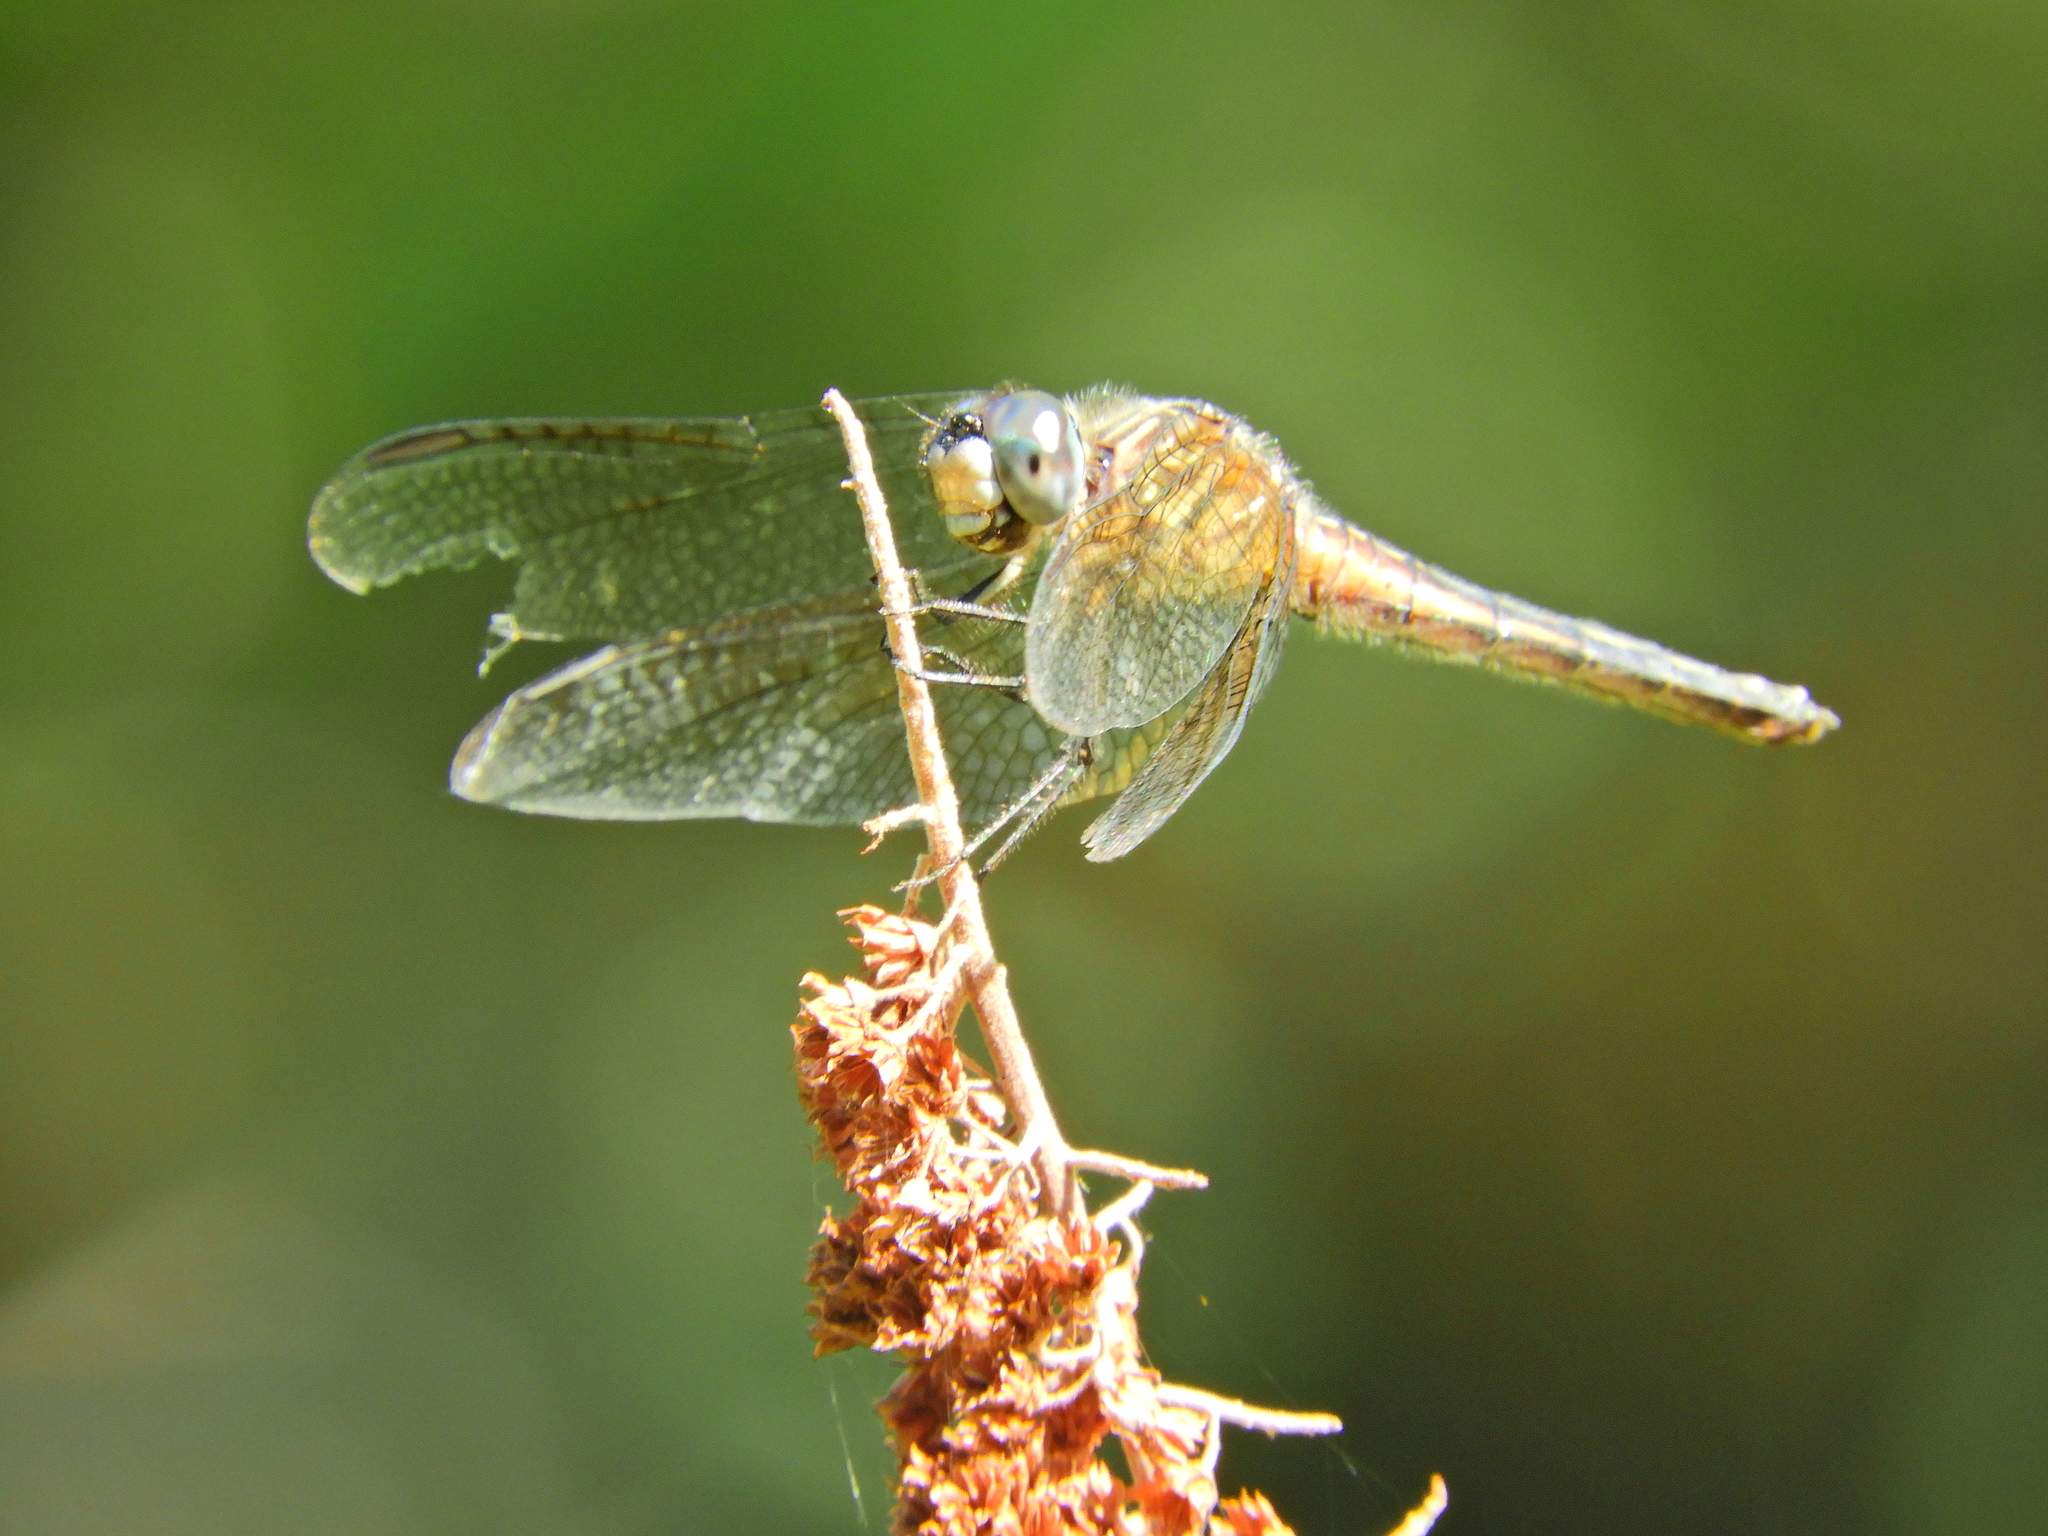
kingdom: Animalia
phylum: Arthropoda
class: Insecta
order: Odonata
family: Libellulidae
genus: Pachydiplax
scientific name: Pachydiplax longipennis
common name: Blue dasher
